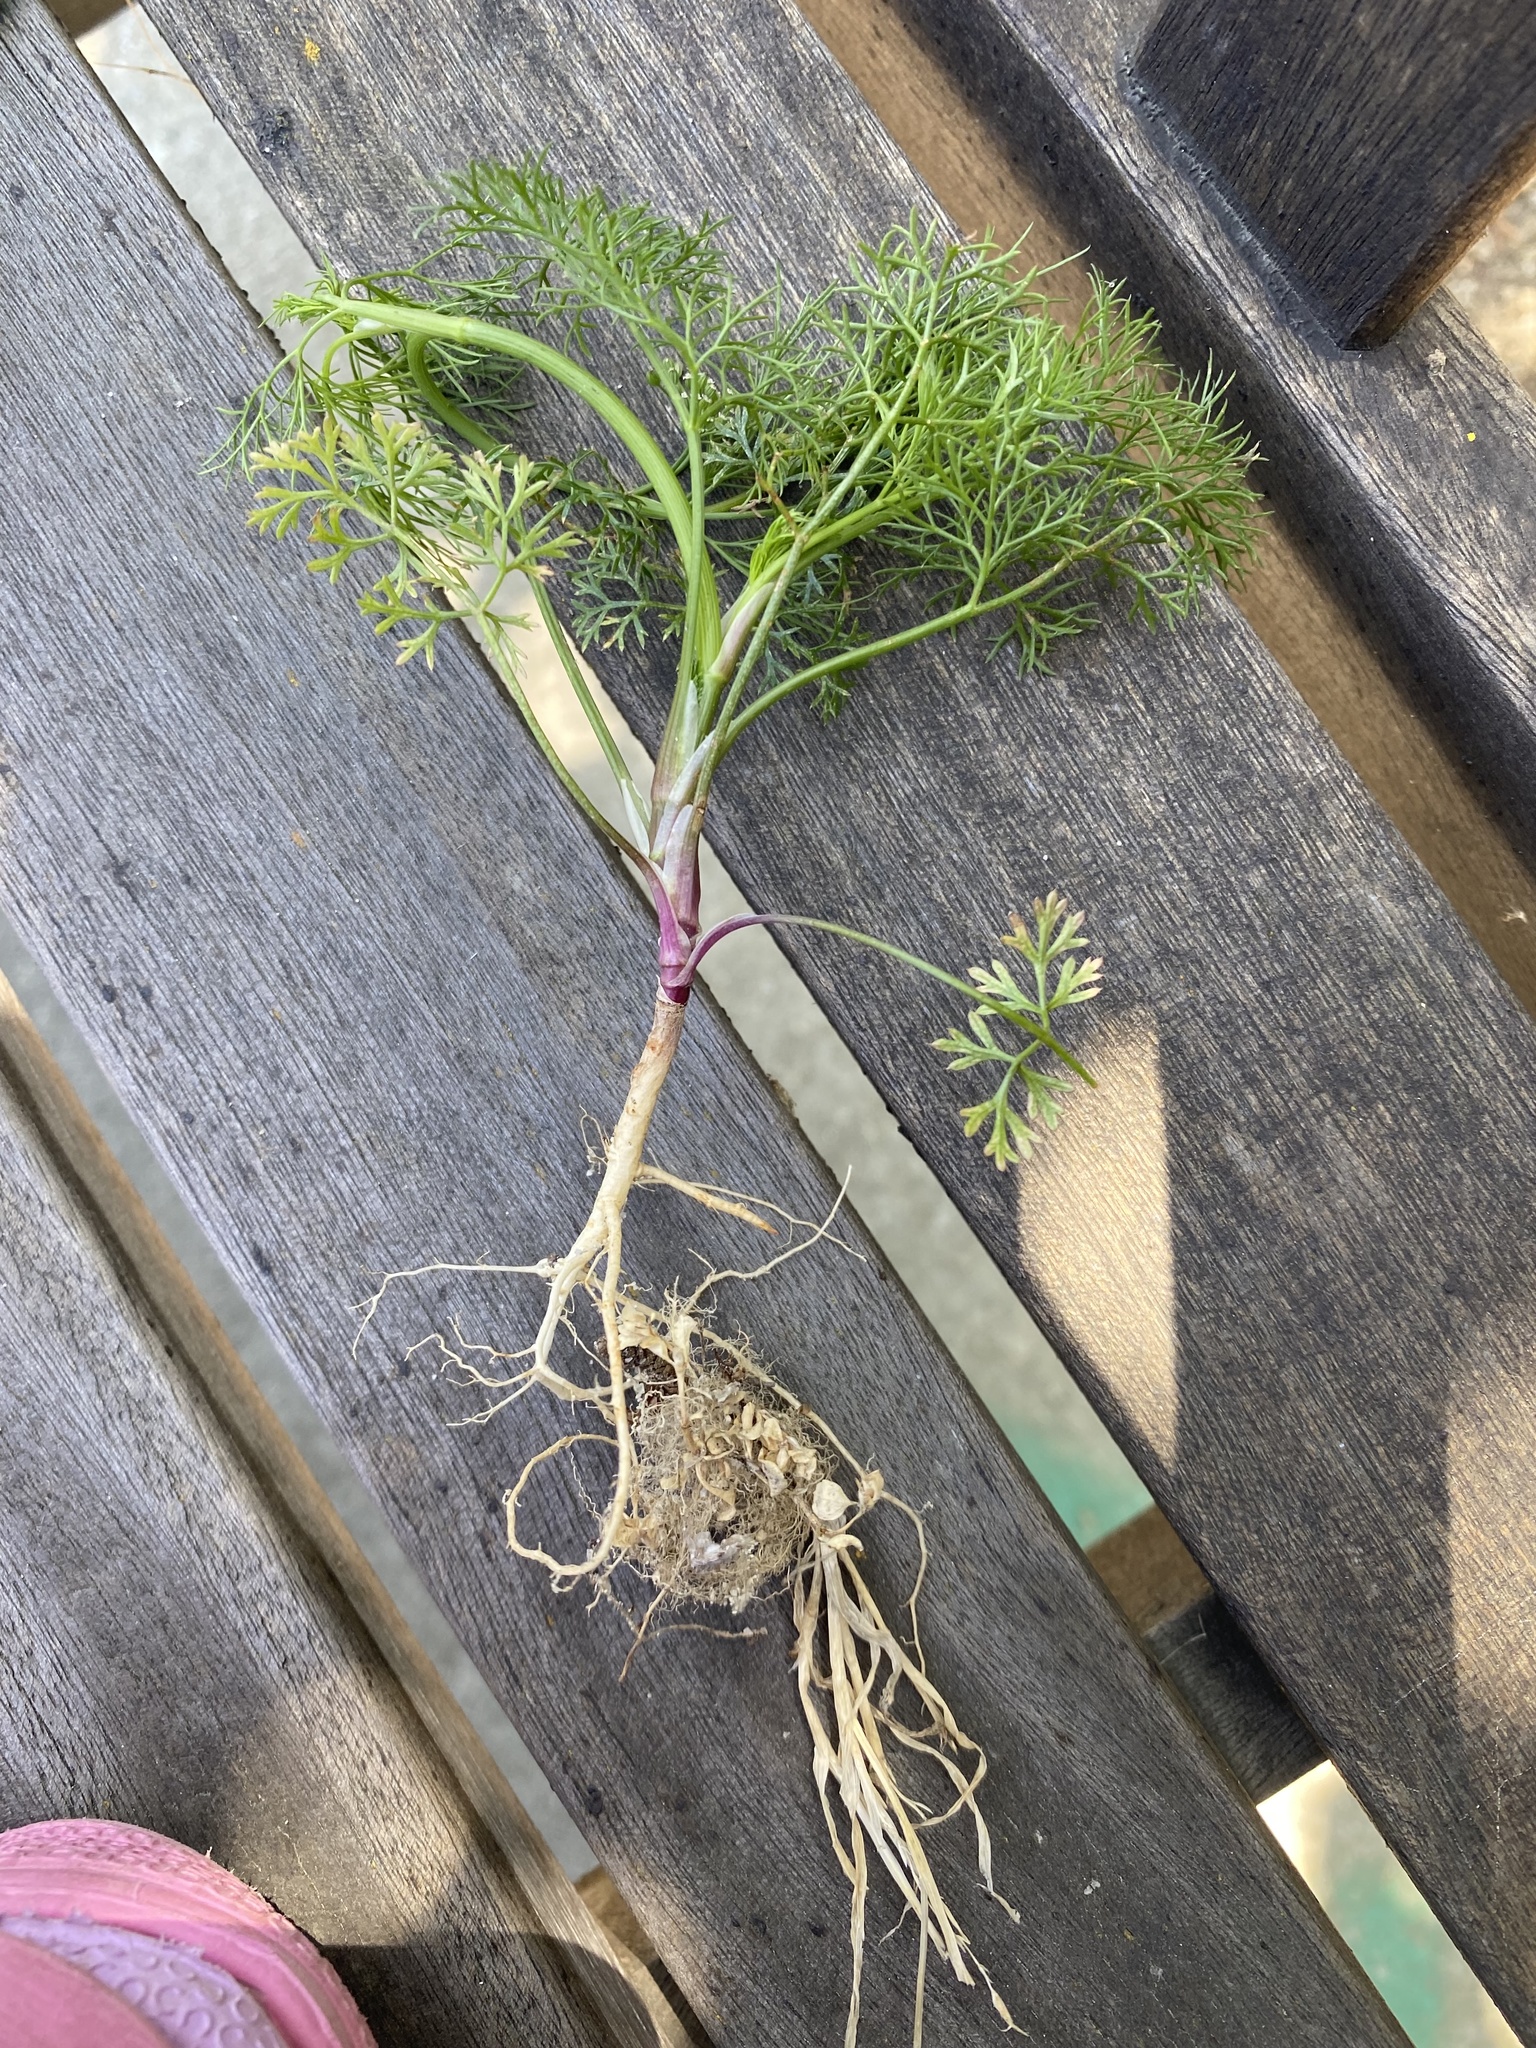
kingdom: Plantae
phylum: Tracheophyta
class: Magnoliopsida
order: Apiales
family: Apiaceae
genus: Cyclospermum
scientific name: Cyclospermum leptophyllum
